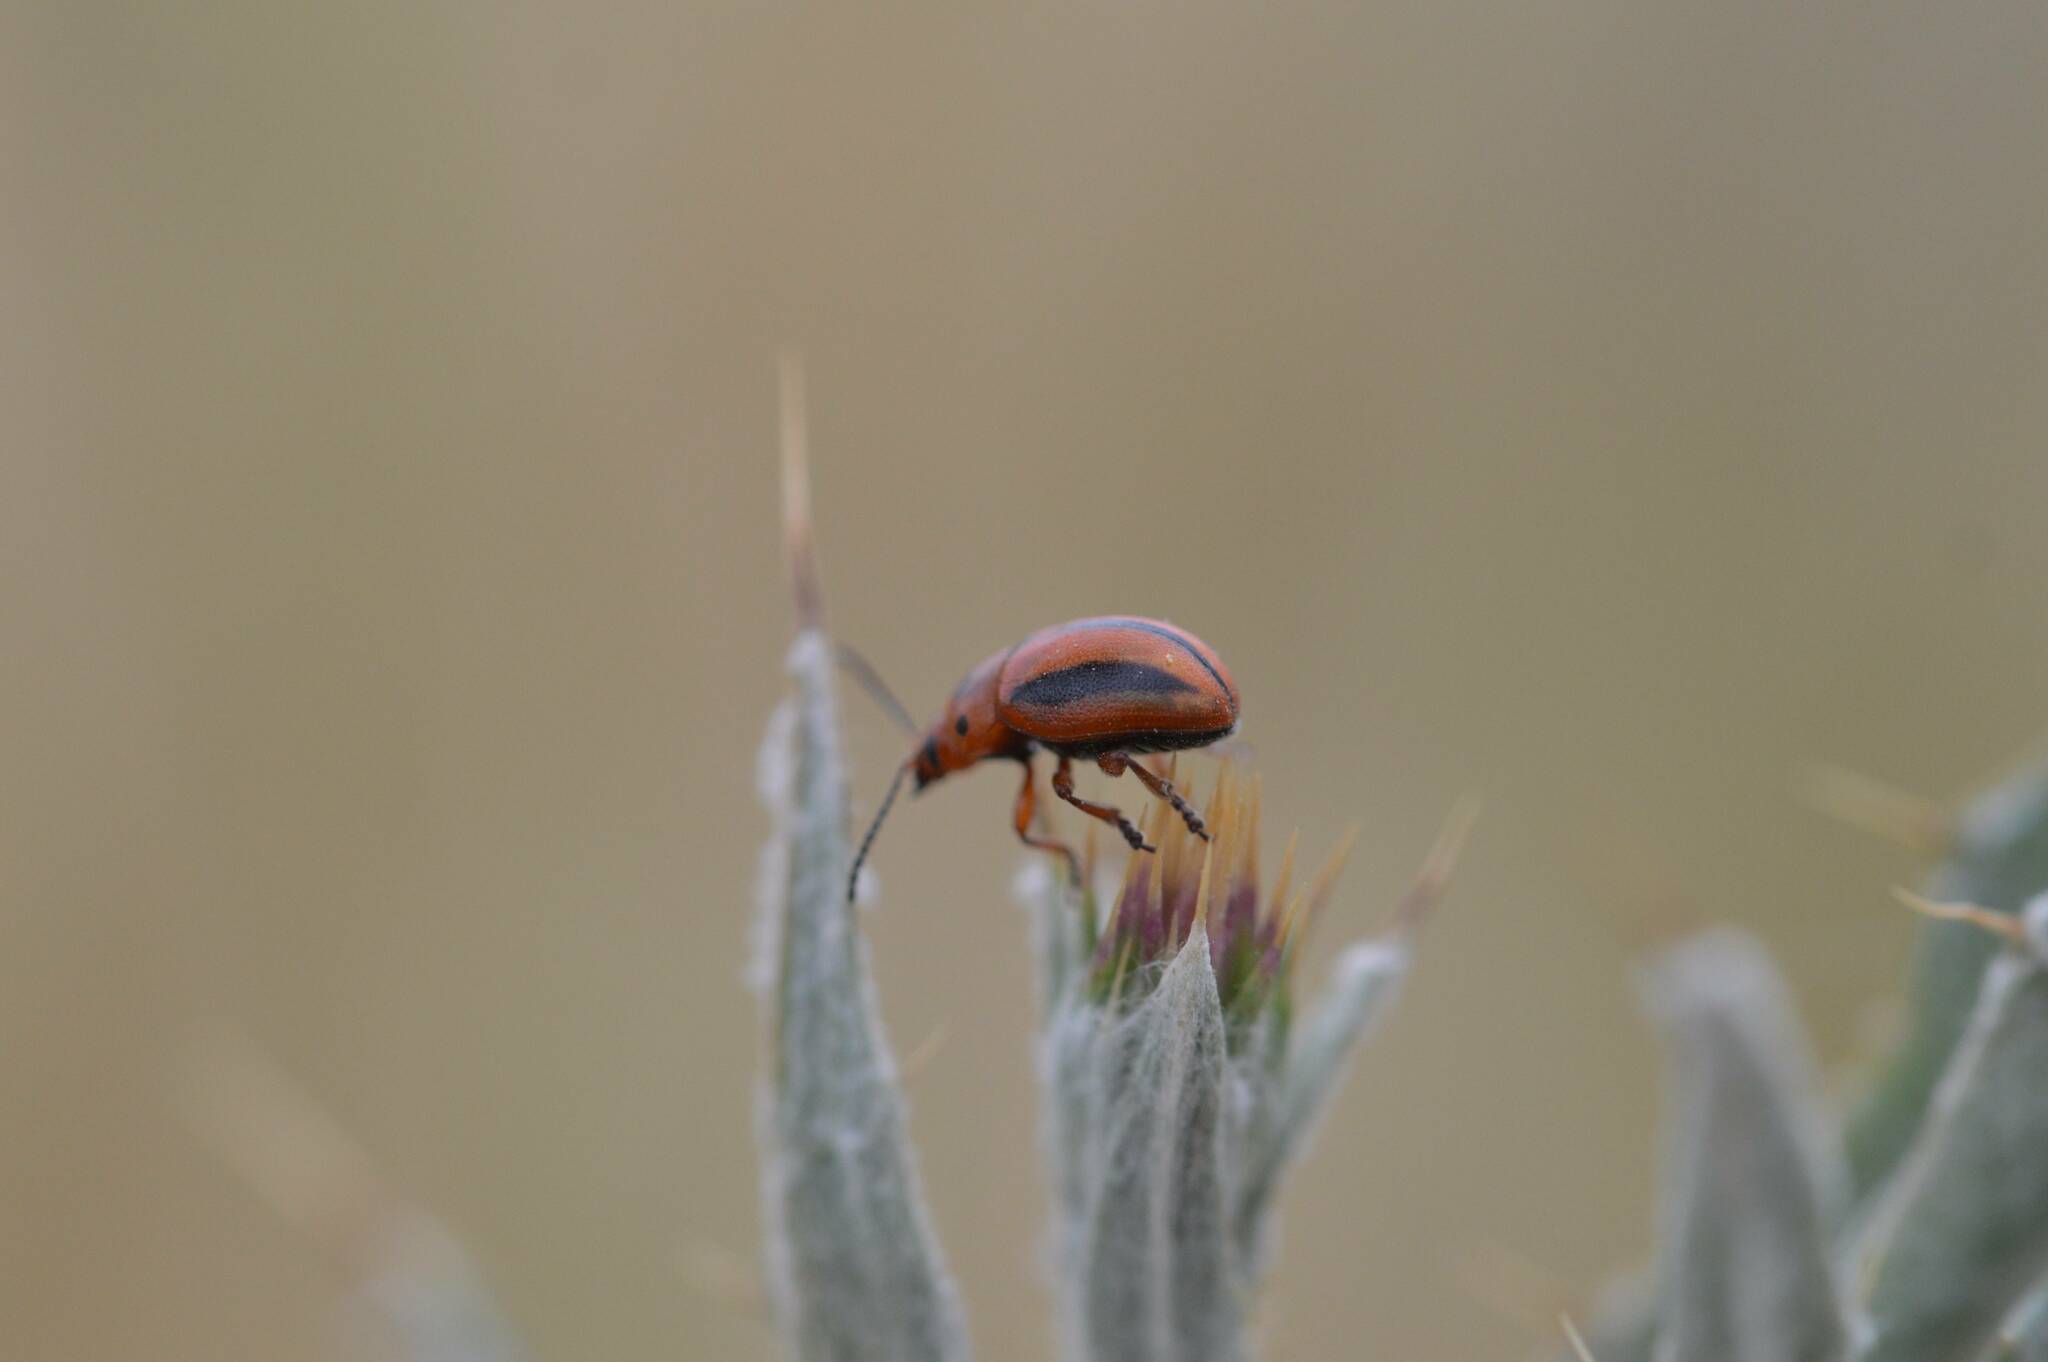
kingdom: Animalia
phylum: Arthropoda
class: Insecta
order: Coleoptera
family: Chrysomelidae
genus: Entomoscelis
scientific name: Entomoscelis rumicis
